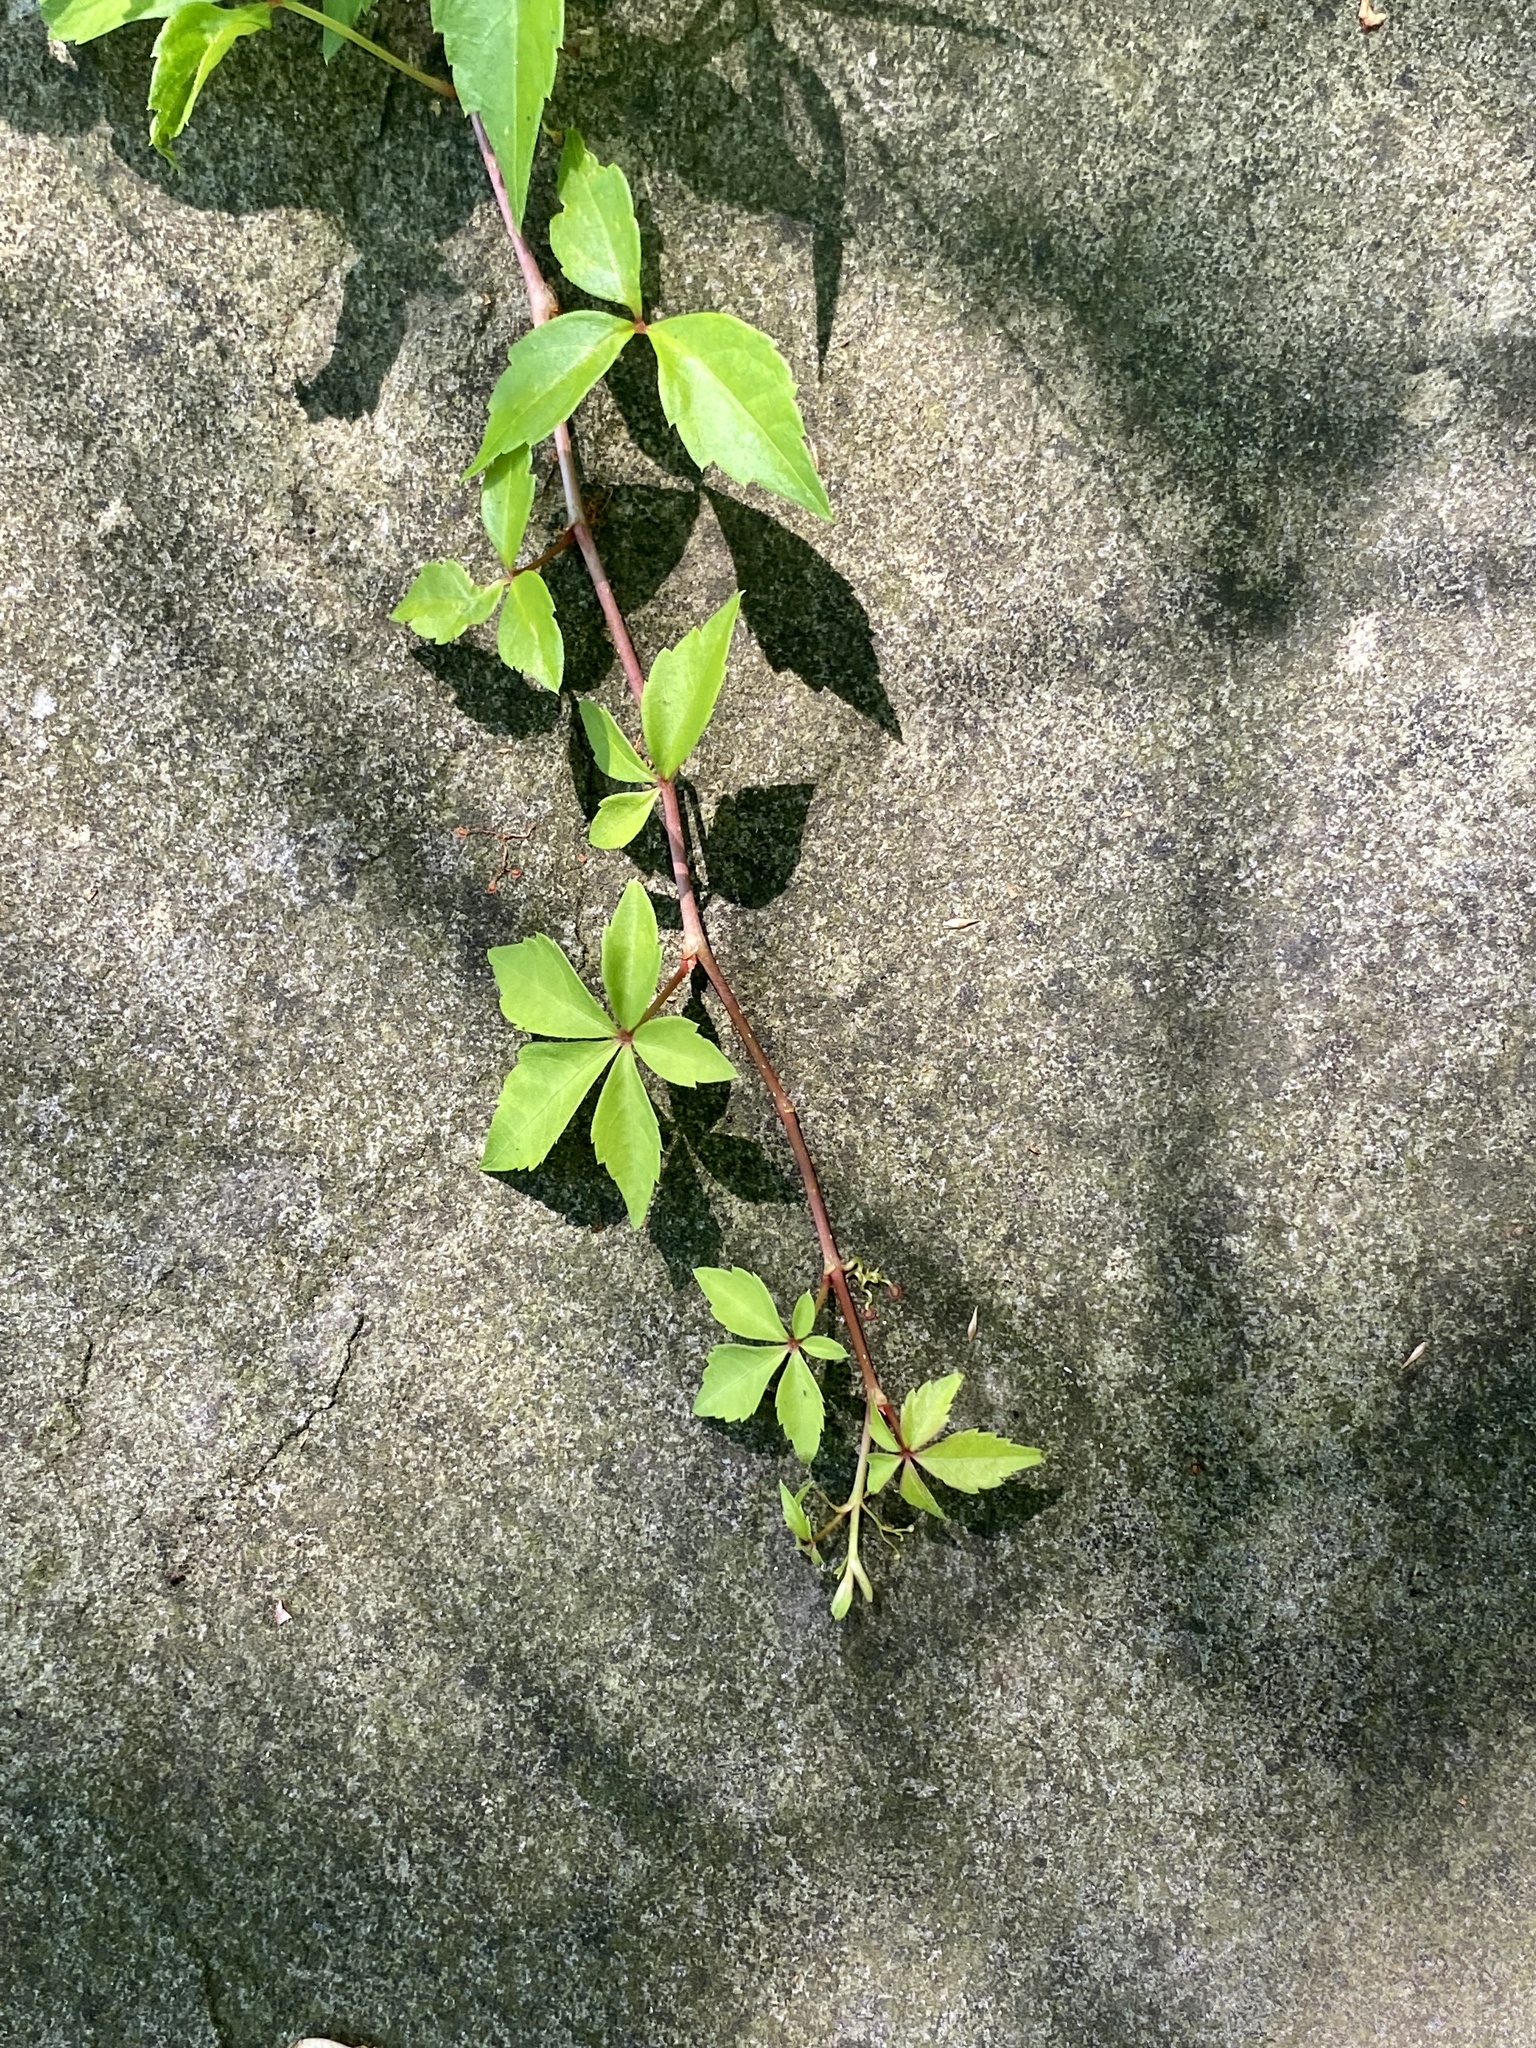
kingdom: Plantae
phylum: Tracheophyta
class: Magnoliopsida
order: Vitales
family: Vitaceae
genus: Parthenocissus
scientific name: Parthenocissus quinquefolia
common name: Virginia-creeper
